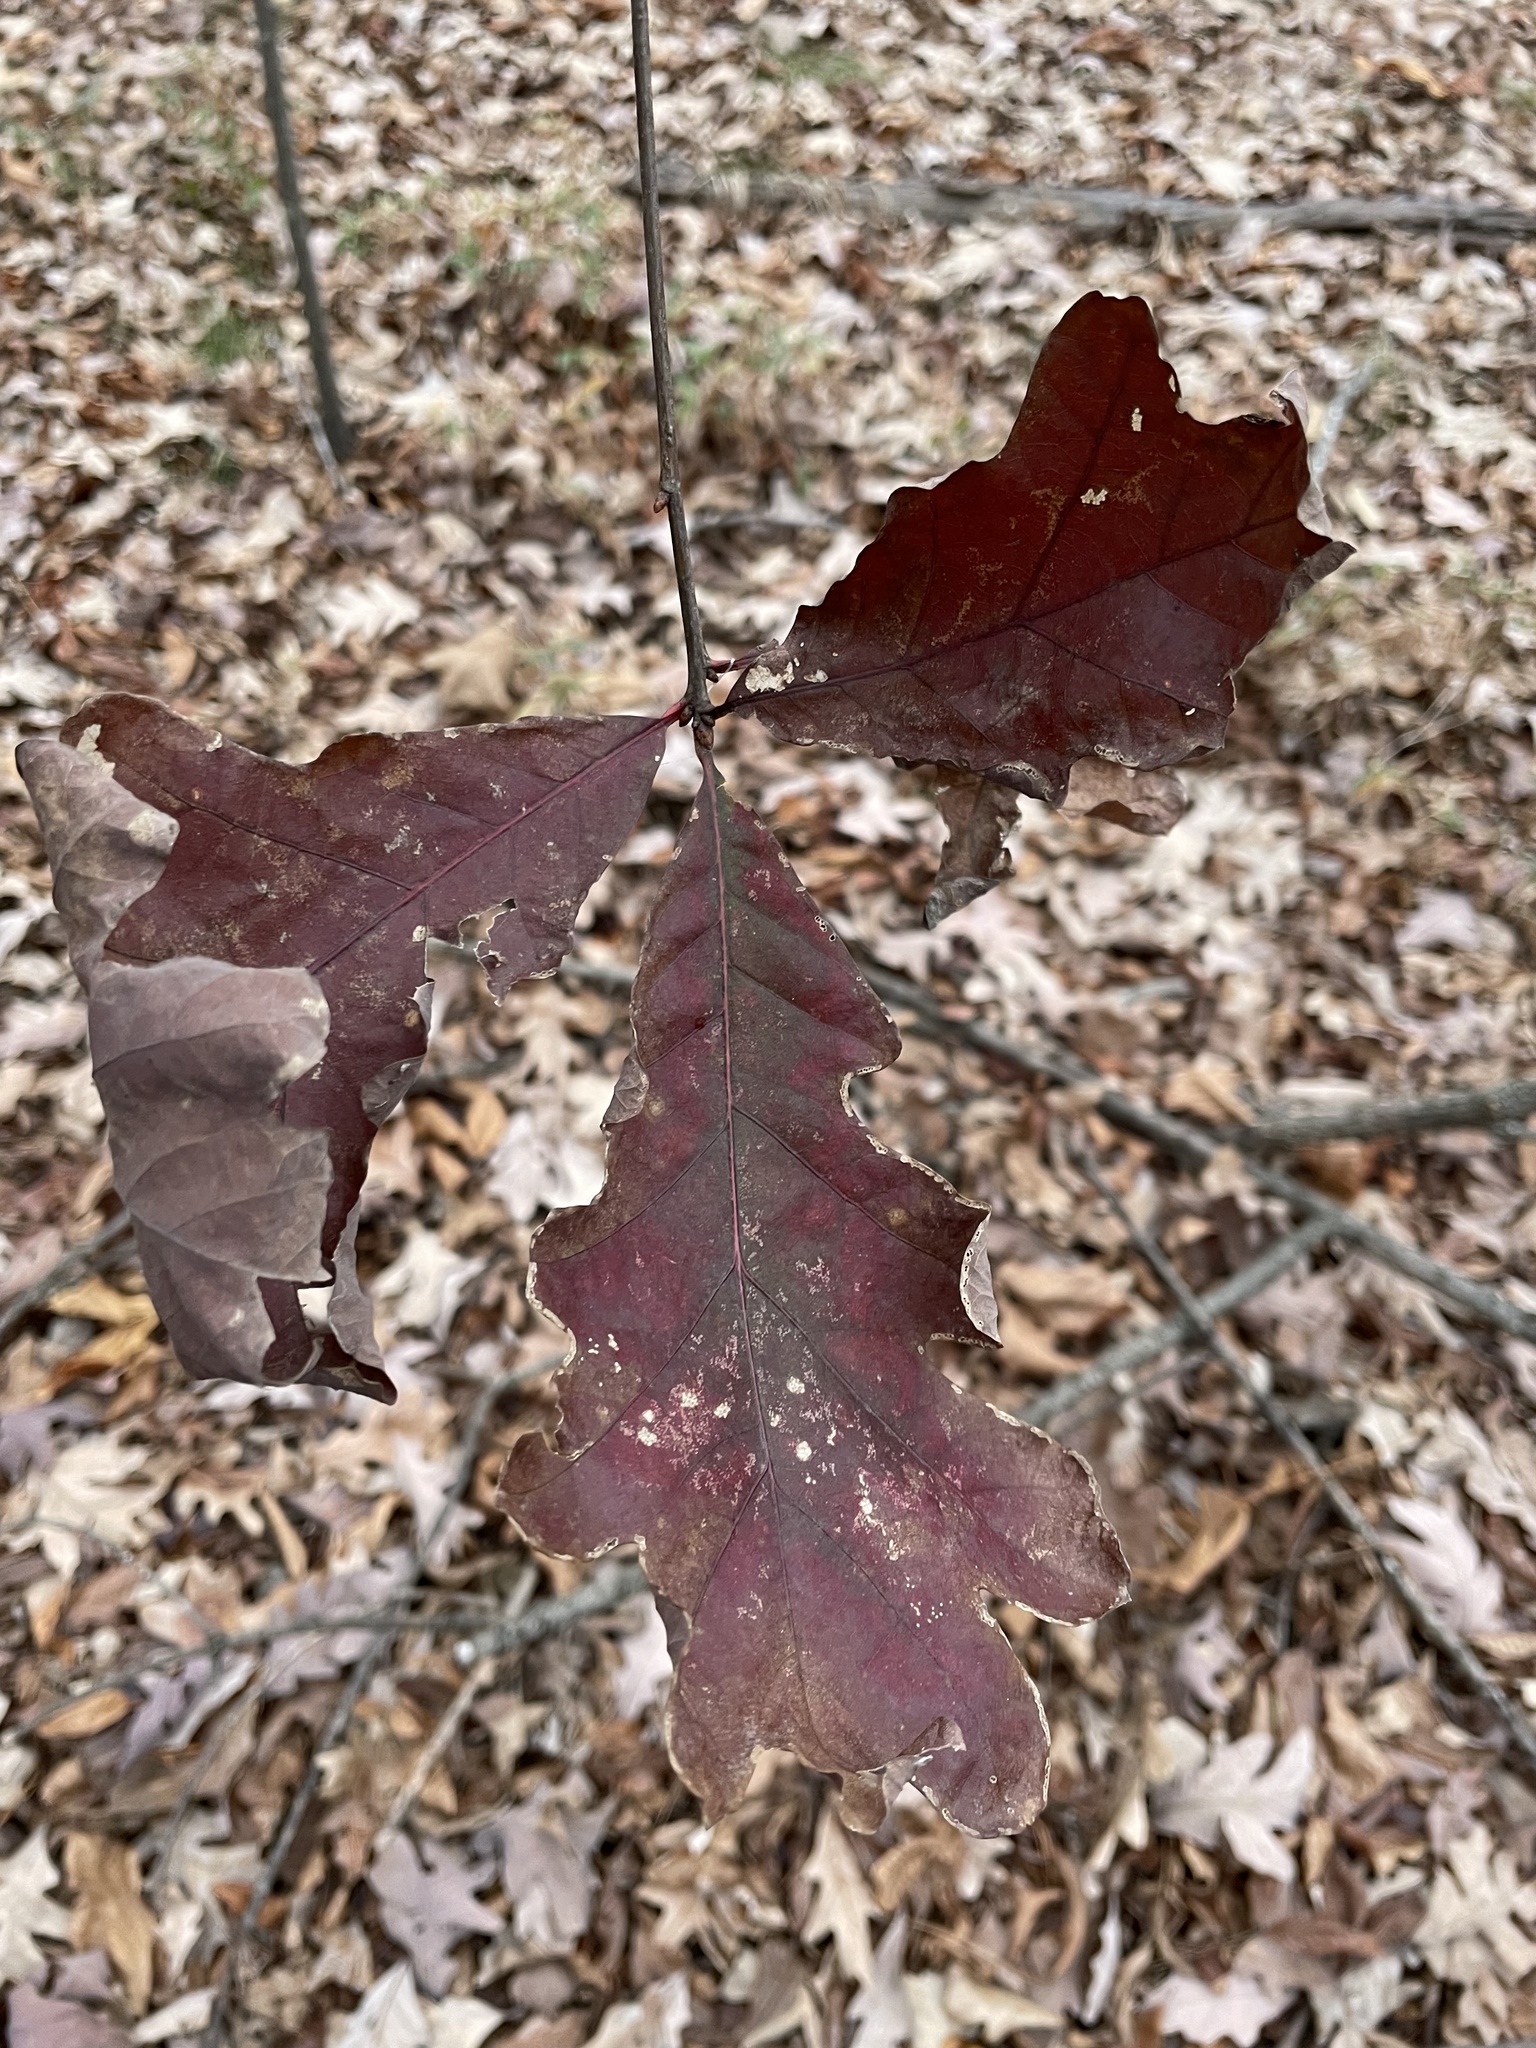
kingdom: Plantae
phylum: Tracheophyta
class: Magnoliopsida
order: Fagales
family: Fagaceae
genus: Quercus
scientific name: Quercus alba
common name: White oak
